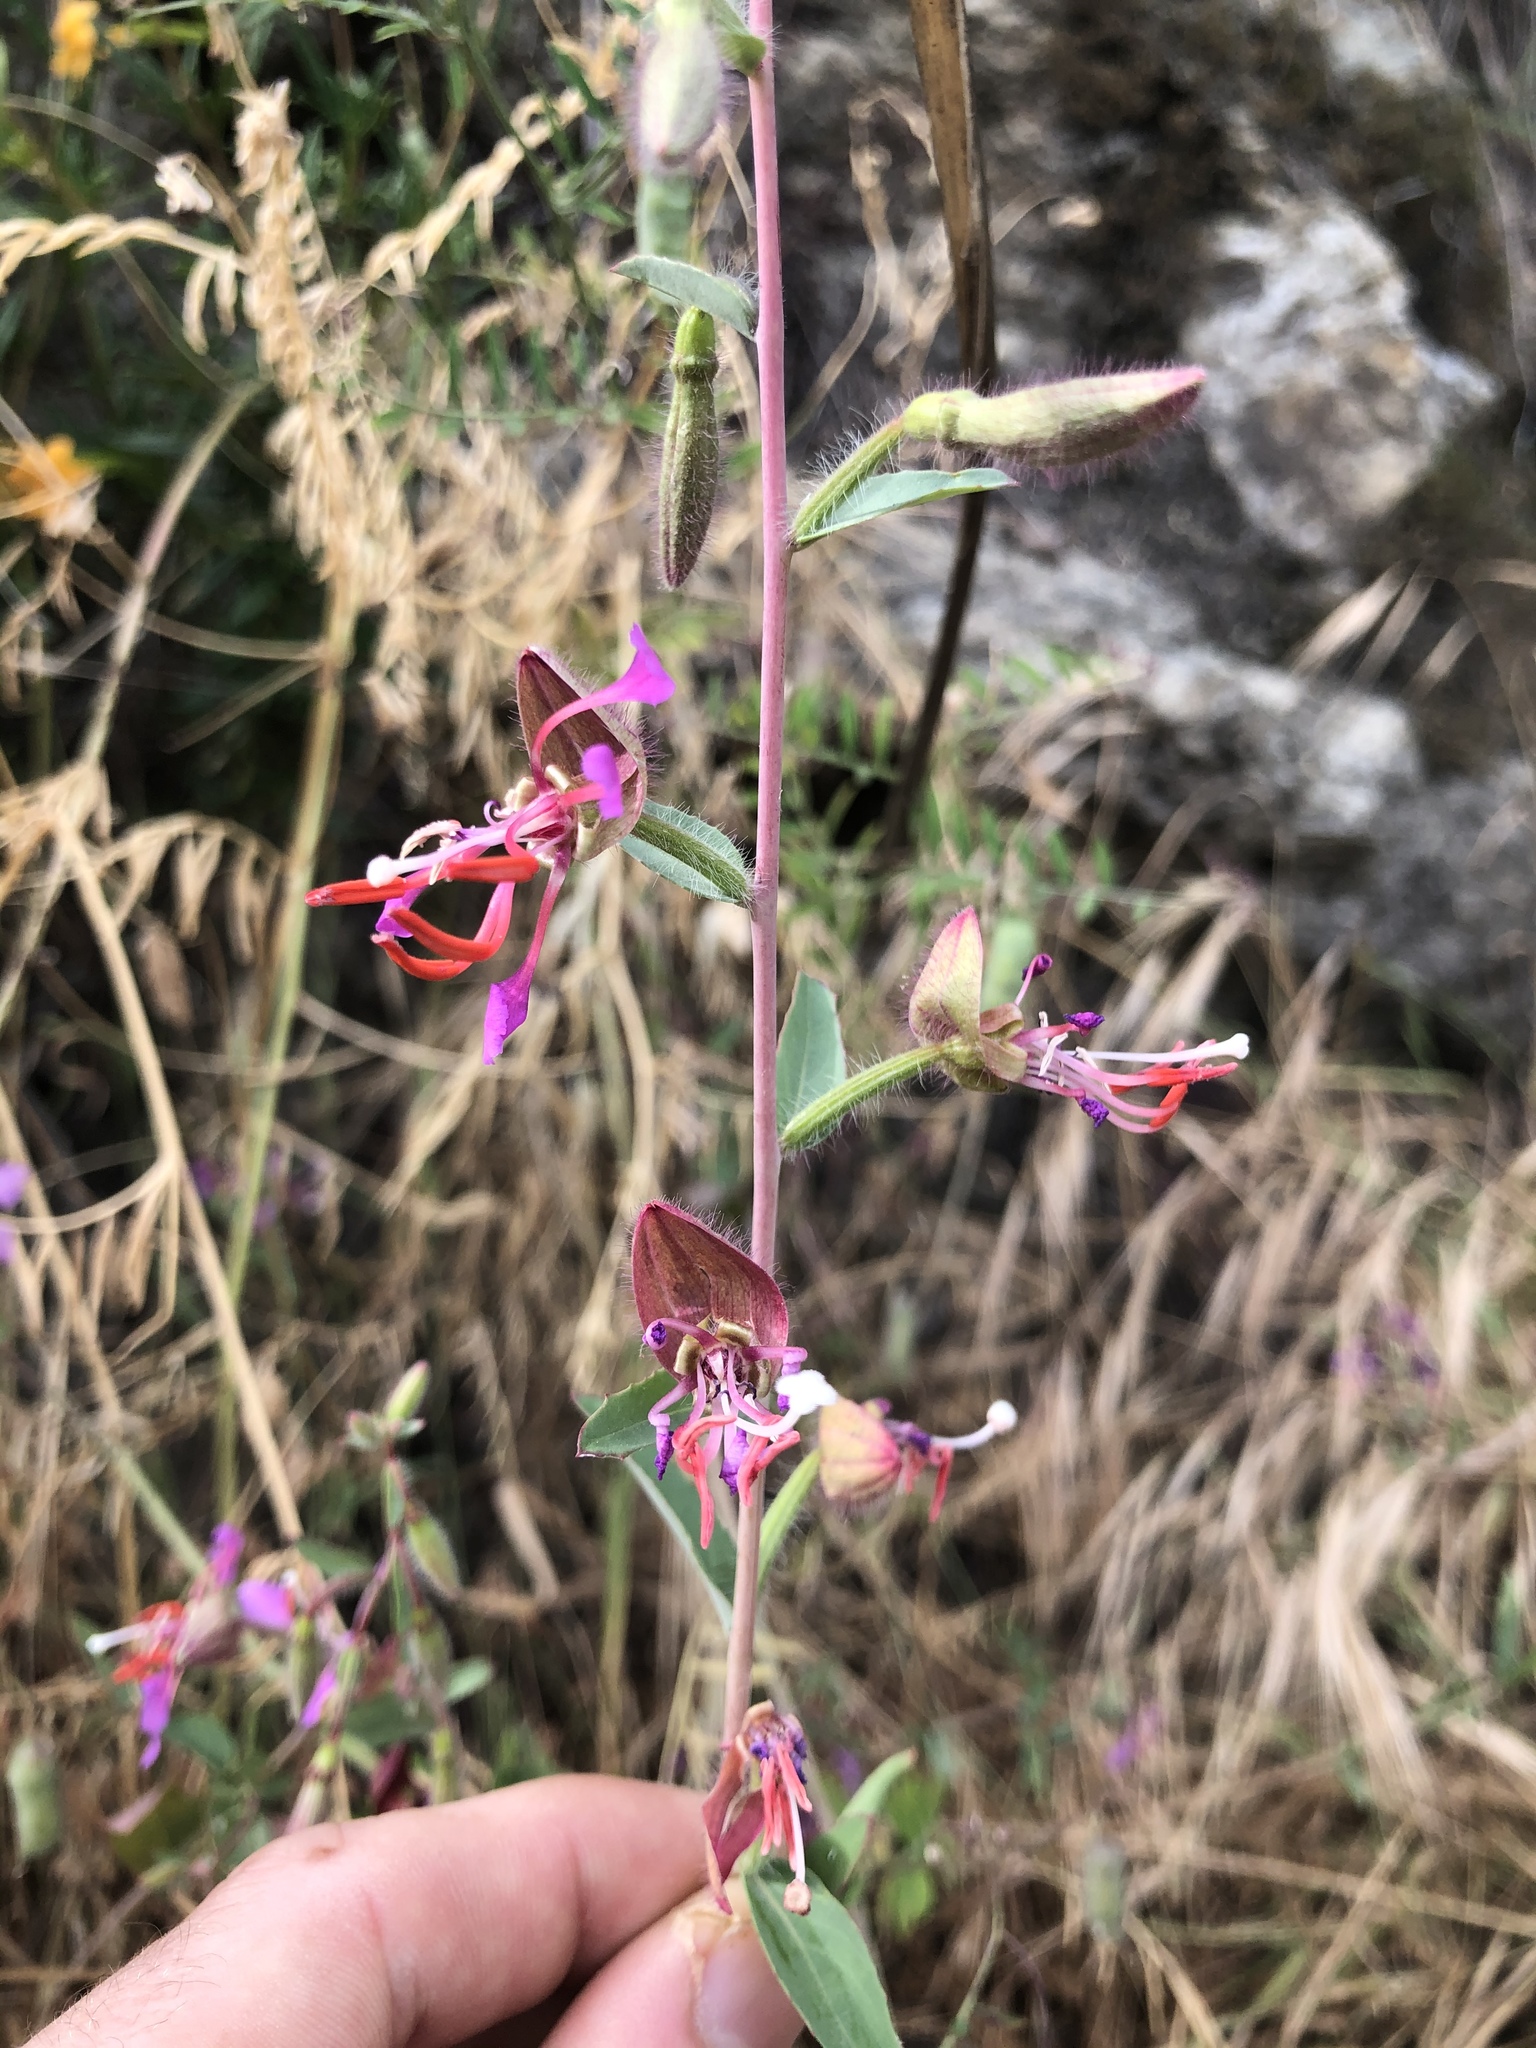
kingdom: Plantae
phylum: Tracheophyta
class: Magnoliopsida
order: Myrtales
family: Onagraceae
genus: Clarkia
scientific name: Clarkia unguiculata
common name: Clarkia
